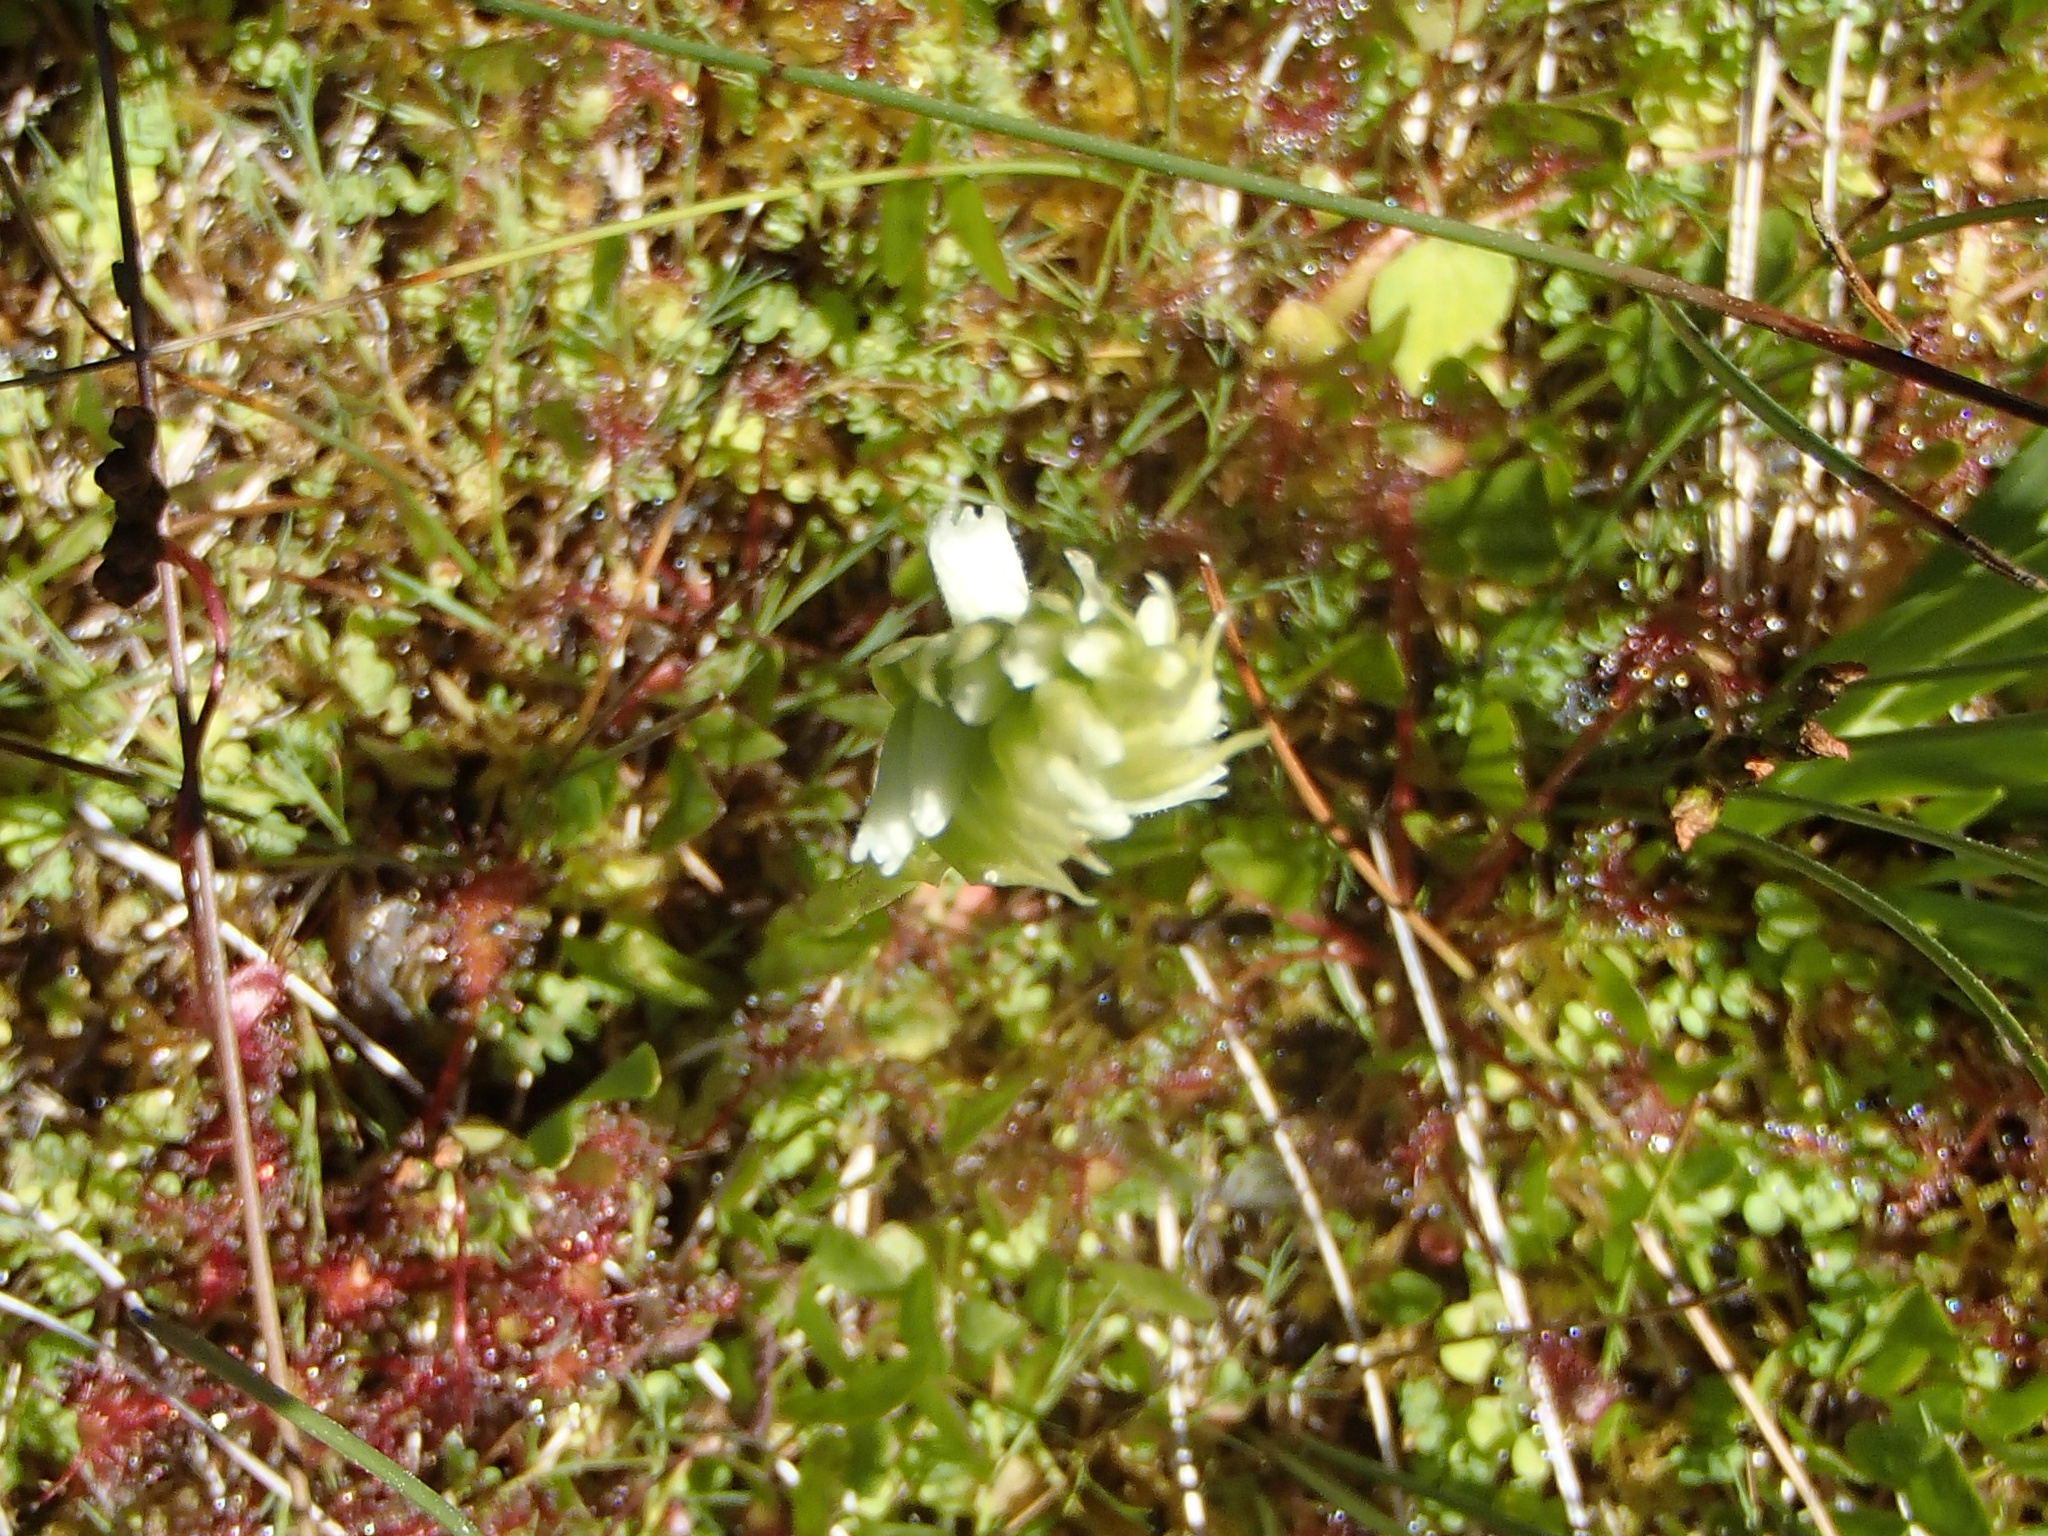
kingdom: Plantae
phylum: Tracheophyta
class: Liliopsida
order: Asparagales
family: Orchidaceae
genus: Spiranthes
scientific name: Spiranthes romanzoffiana
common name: Irish lady's-tresses
